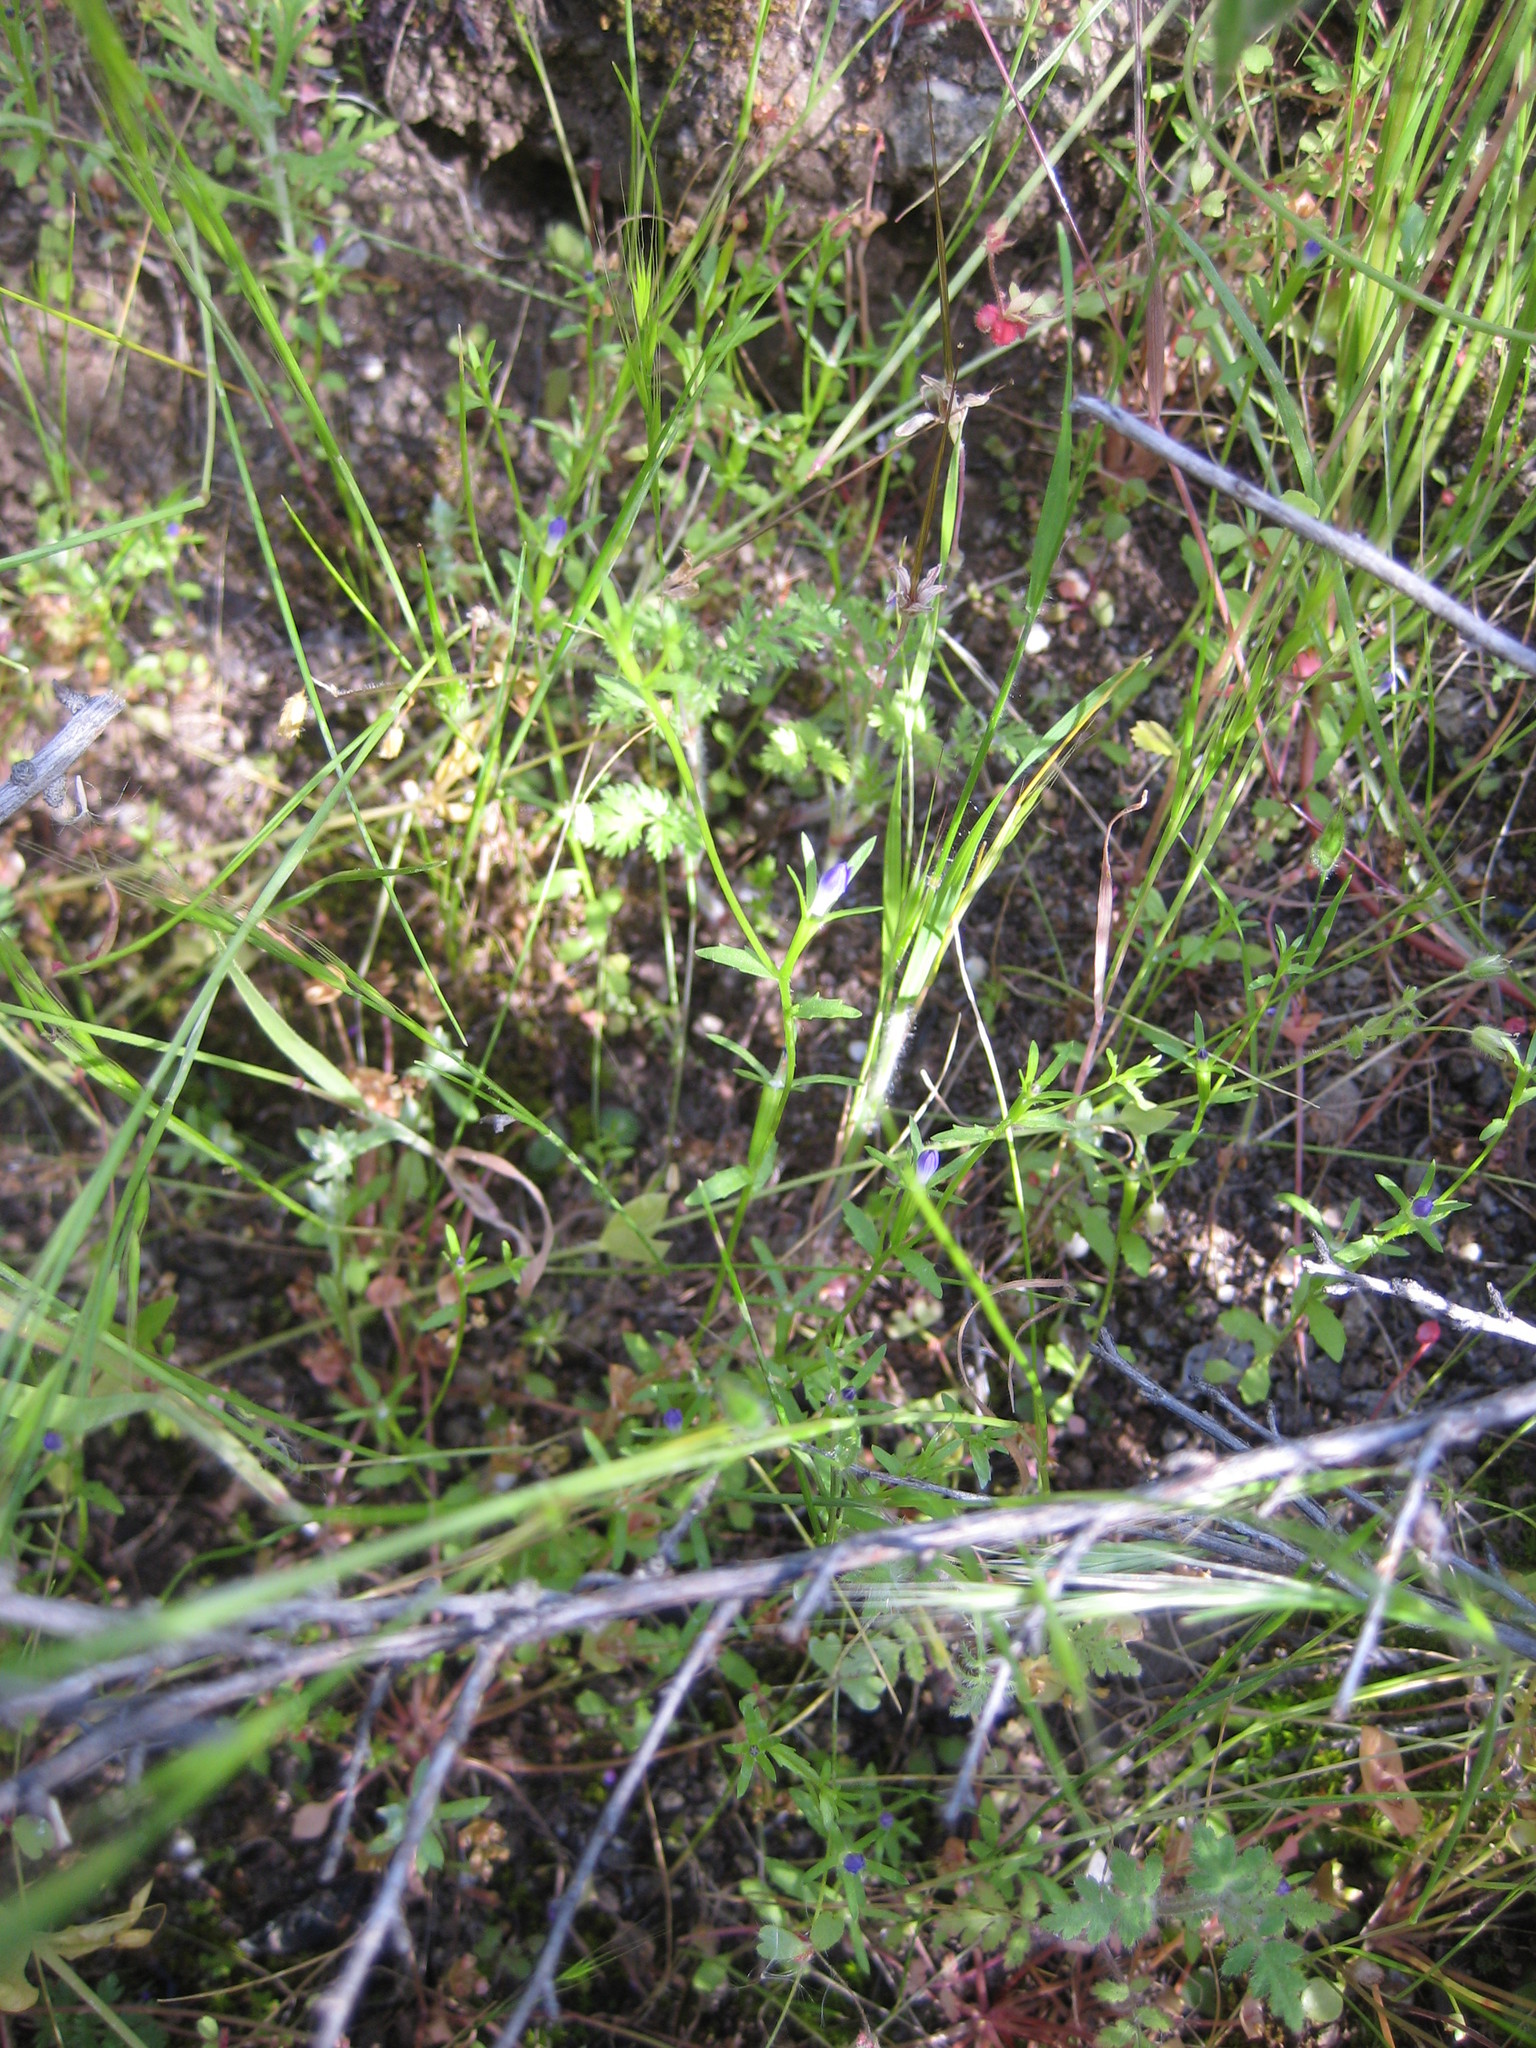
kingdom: Plantae
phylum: Tracheophyta
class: Magnoliopsida
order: Asterales
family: Campanulaceae
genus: Githopsis
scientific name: Githopsis diffusa
